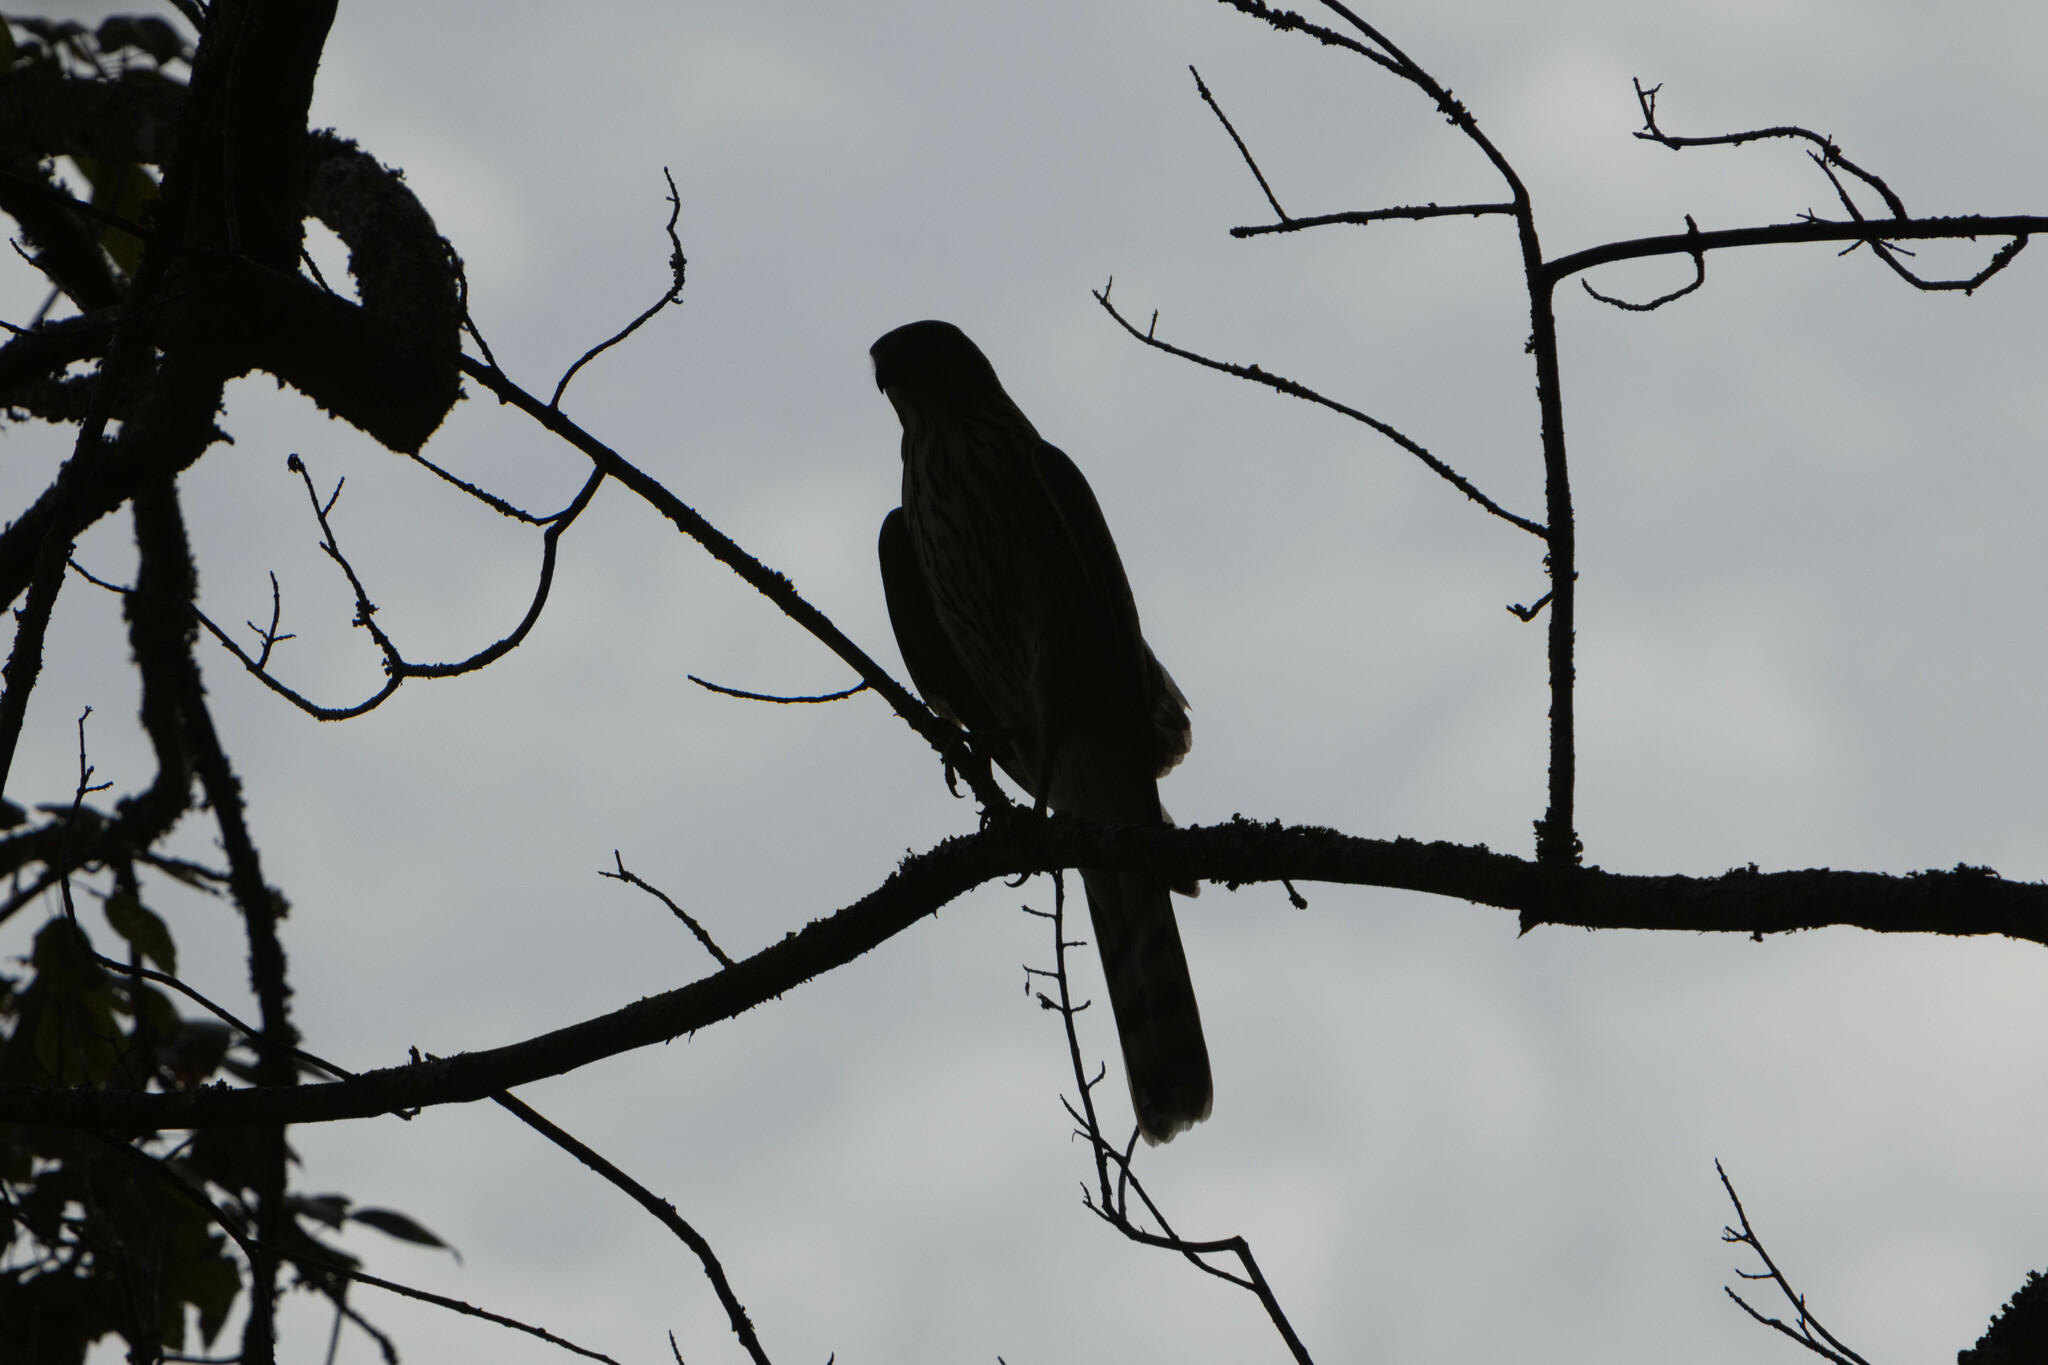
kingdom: Animalia
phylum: Chordata
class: Aves
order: Accipitriformes
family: Accipitridae
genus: Accipiter
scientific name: Accipiter cooperii
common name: Cooper's hawk
